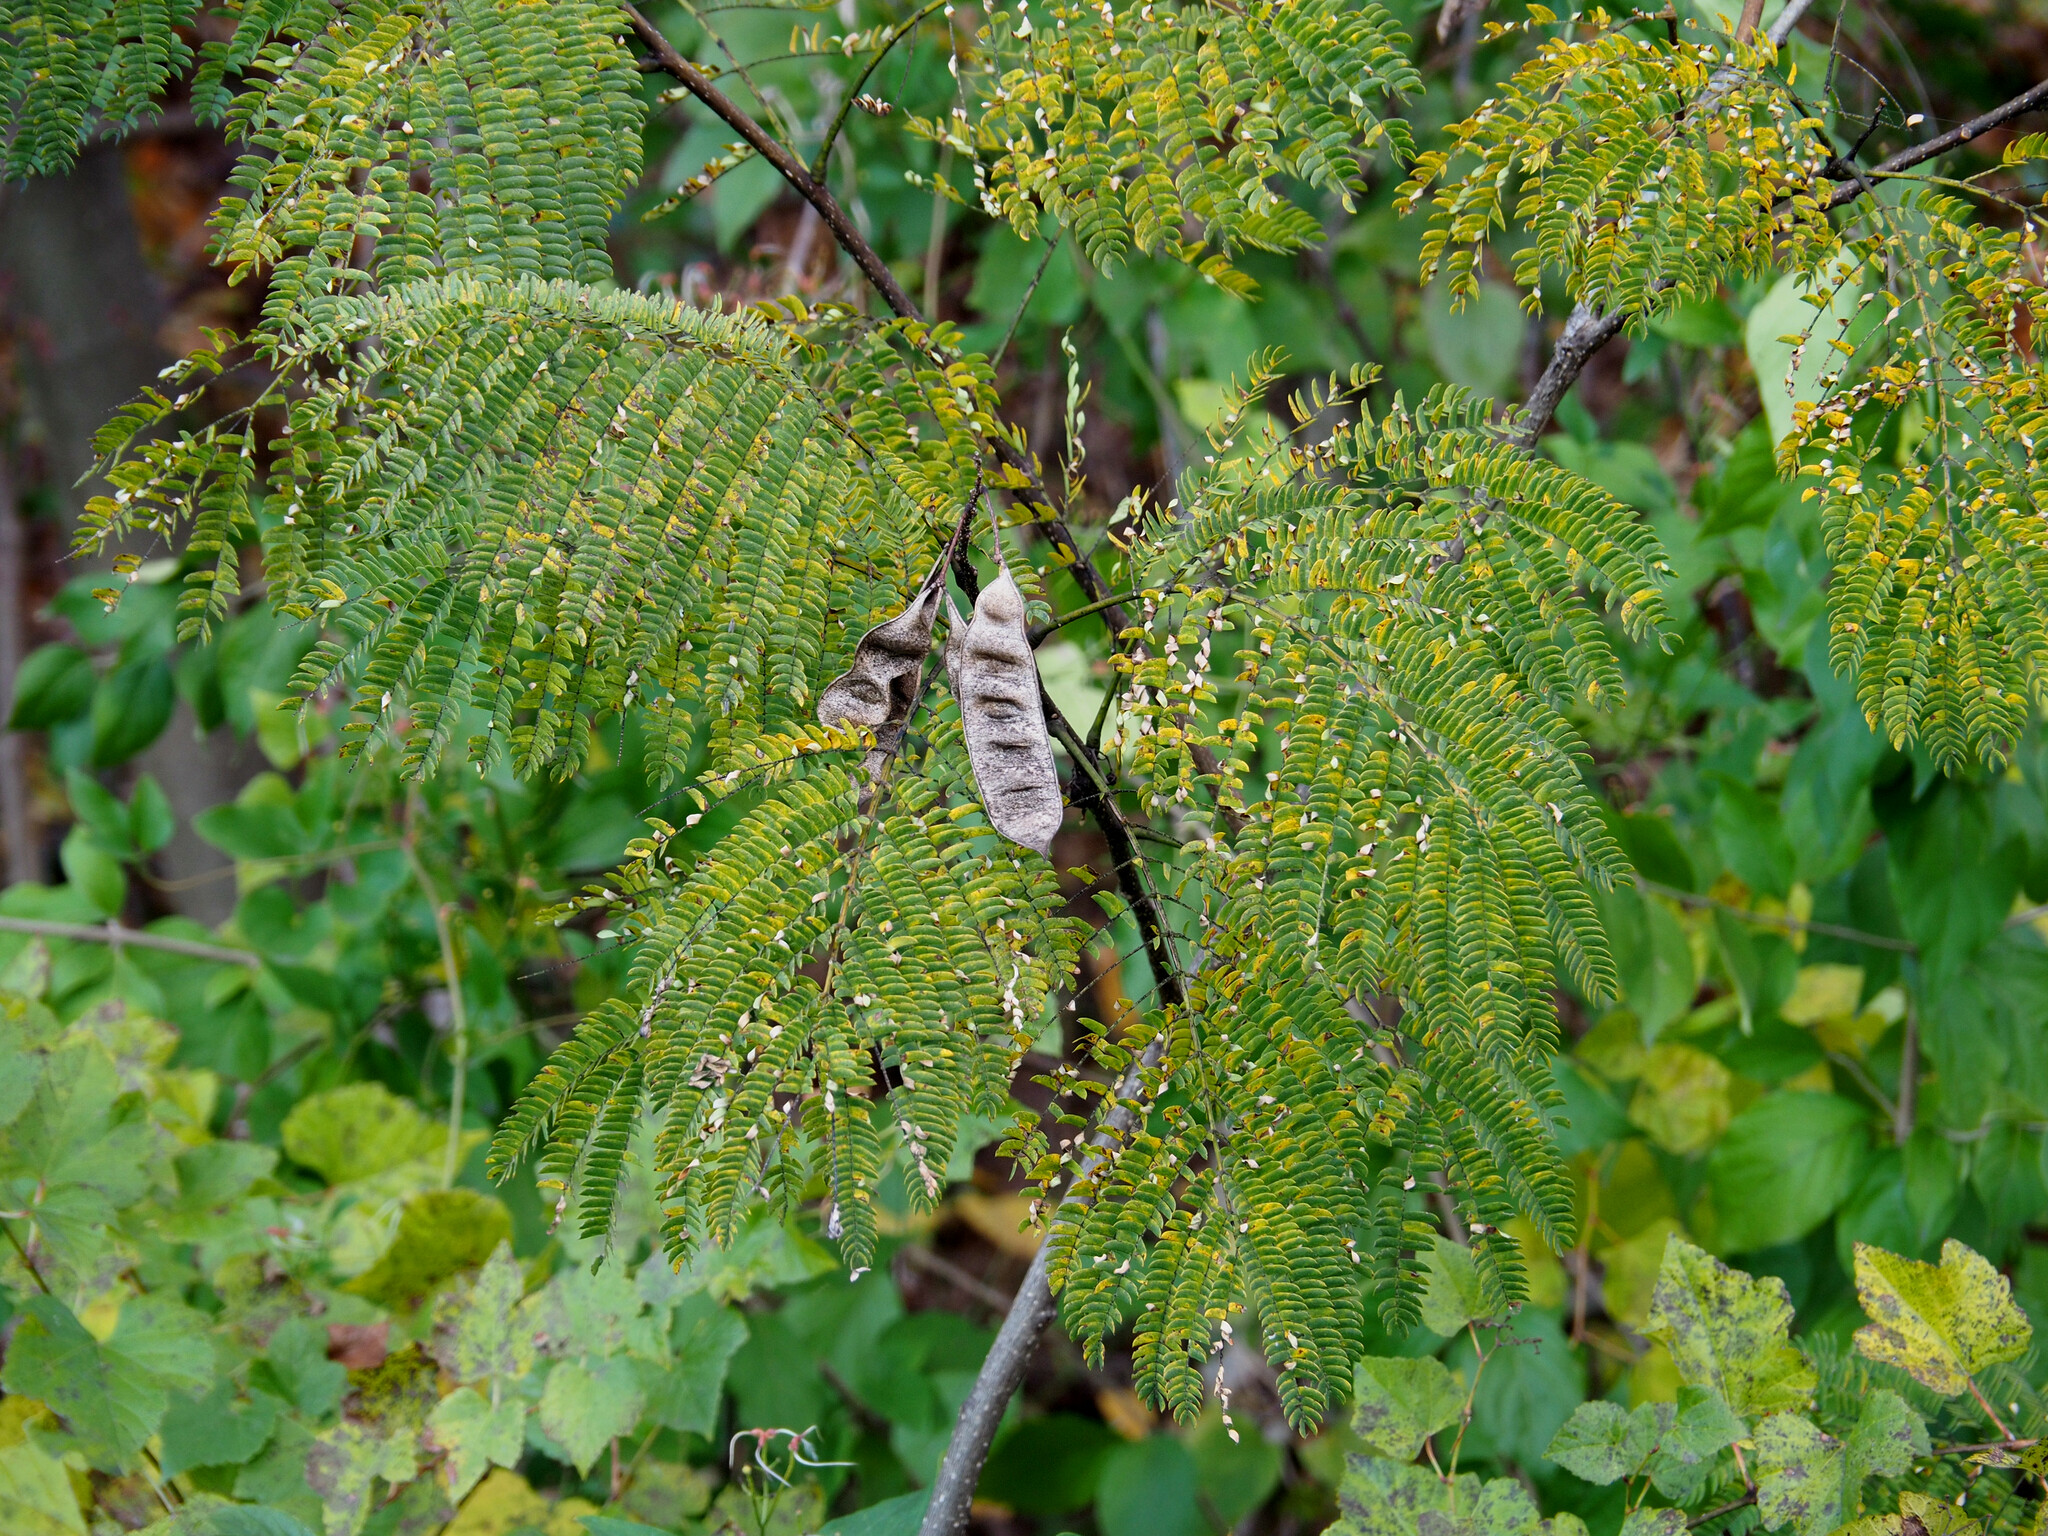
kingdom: Plantae
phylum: Tracheophyta
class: Magnoliopsida
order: Fabales
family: Fabaceae
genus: Albizia
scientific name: Albizia julibrissin
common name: Silktree
